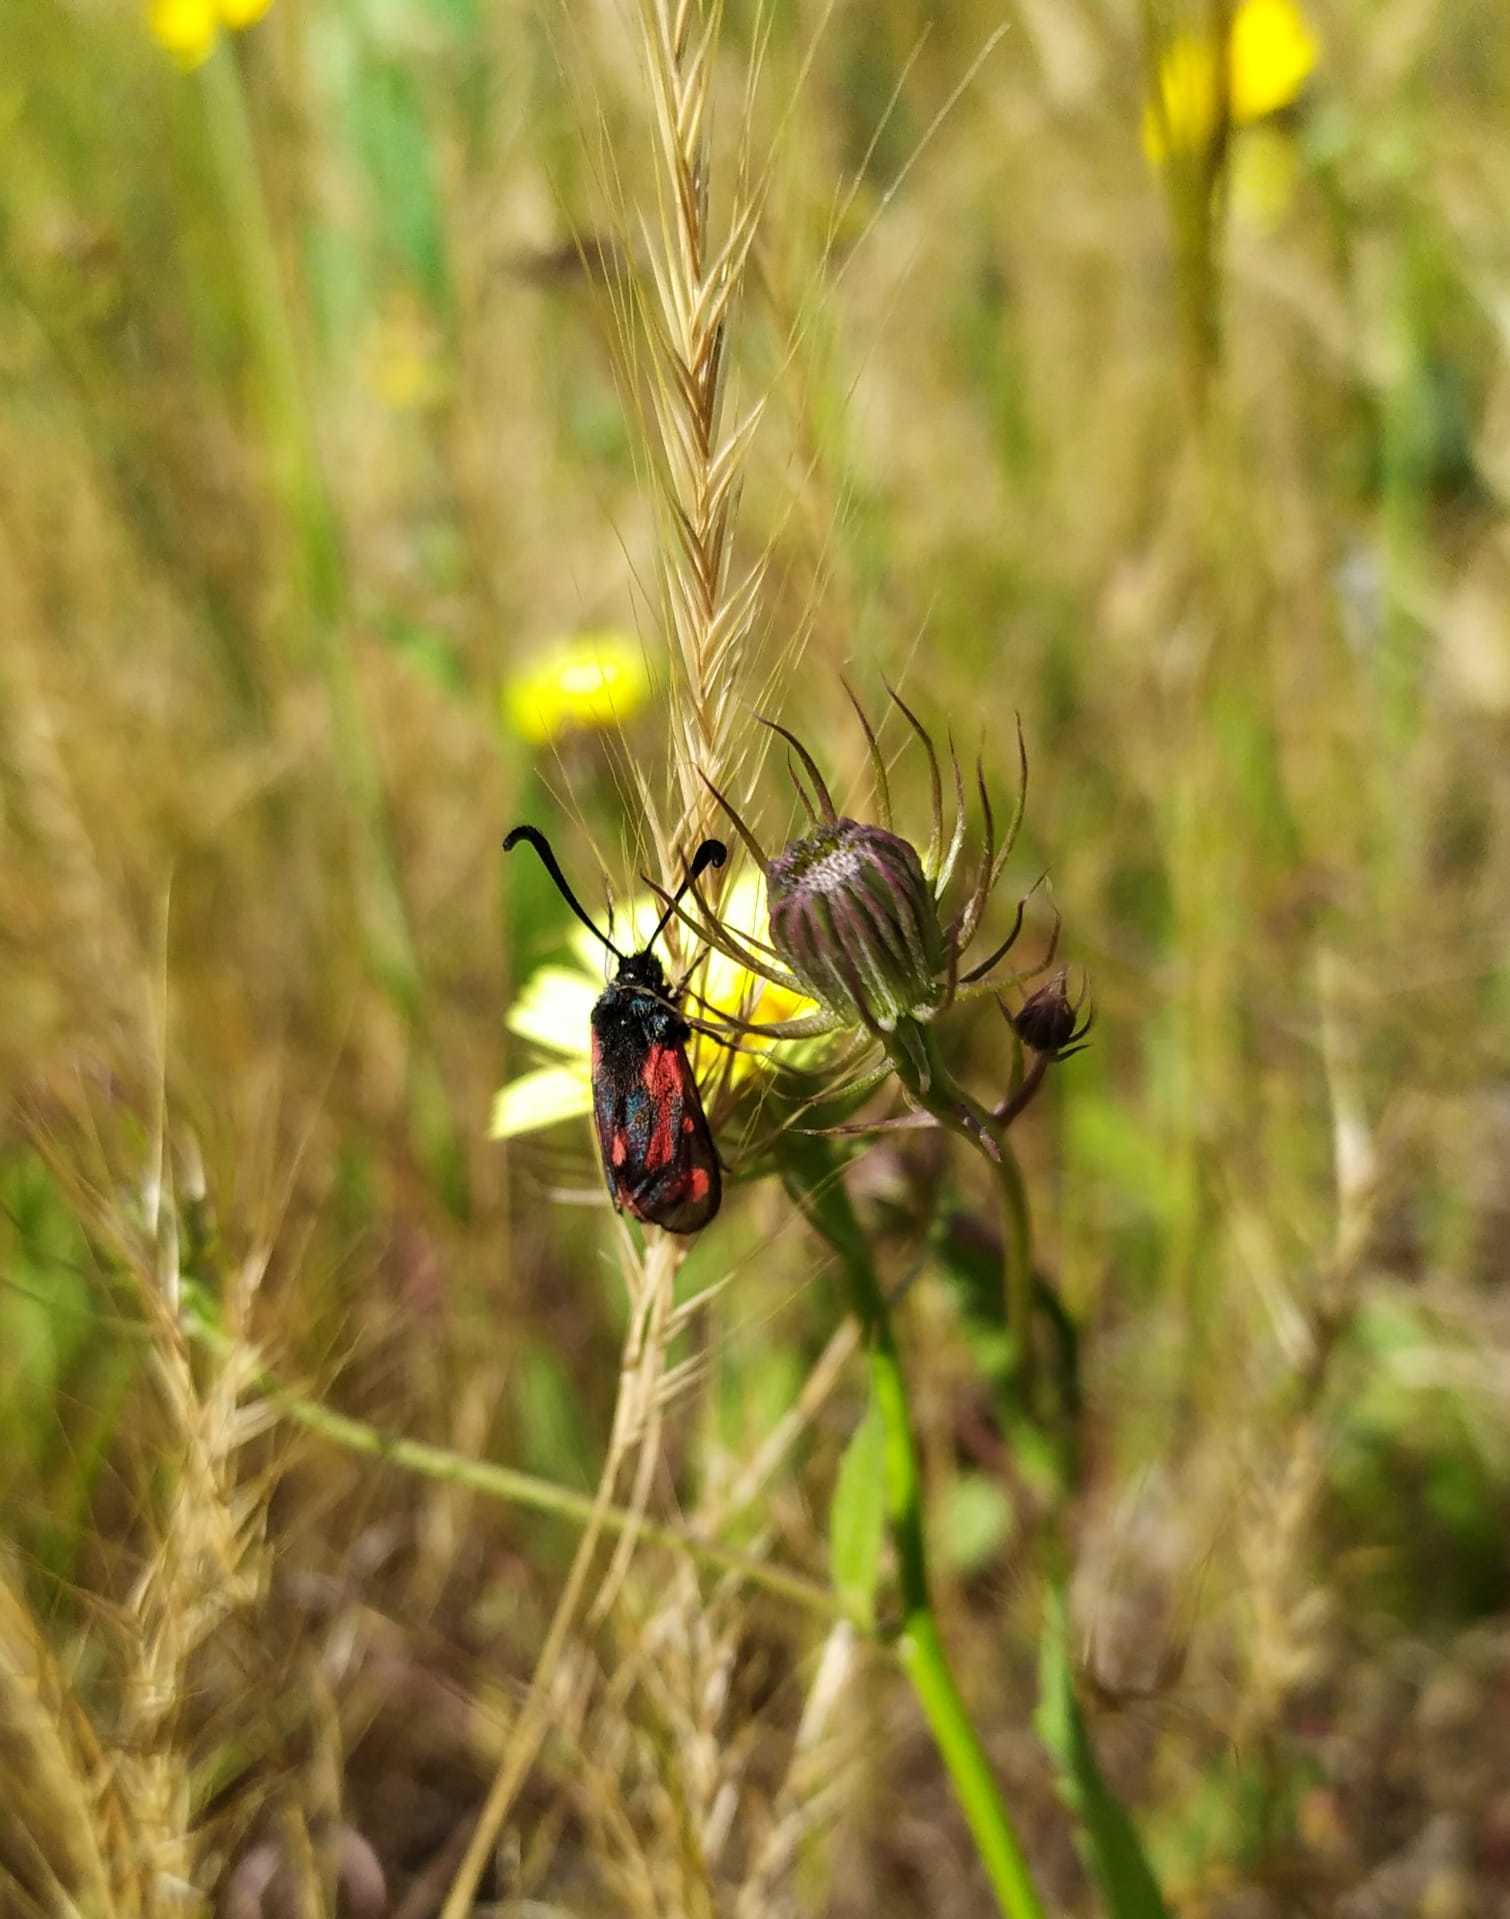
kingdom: Animalia
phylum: Arthropoda
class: Insecta
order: Lepidoptera
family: Zygaenidae
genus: Zygaena
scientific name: Zygaena sarpedon
